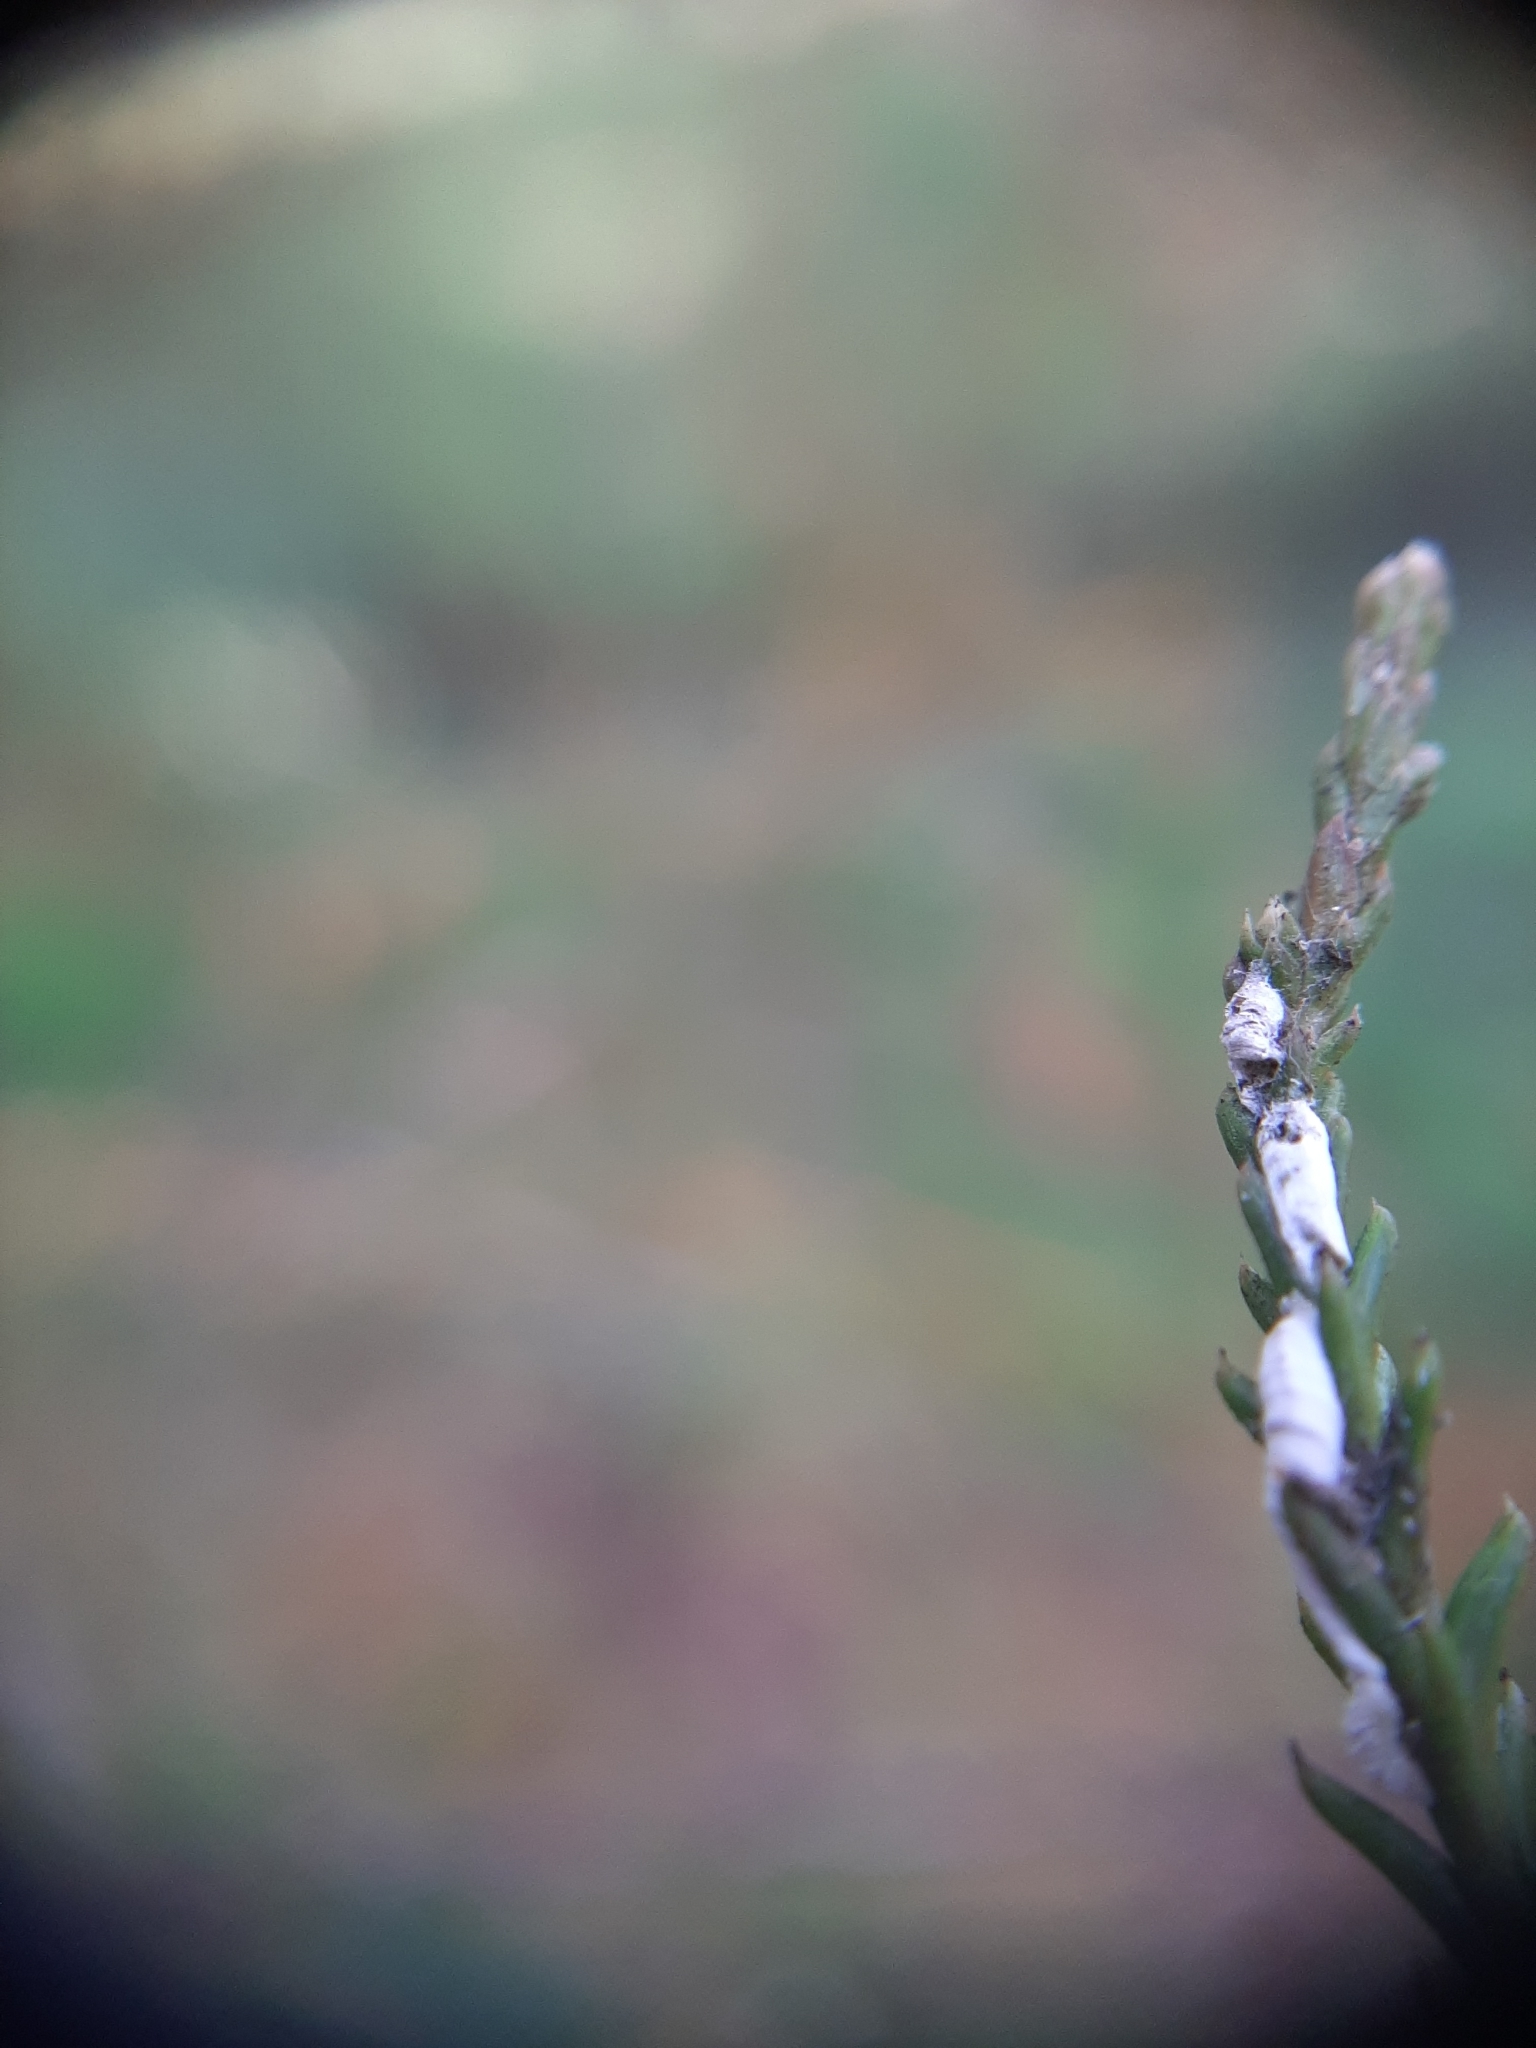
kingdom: Animalia
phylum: Arthropoda
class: Insecta
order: Hemiptera
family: Pseudococcidae
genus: Paraferrisia
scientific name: Paraferrisia podocarpi
